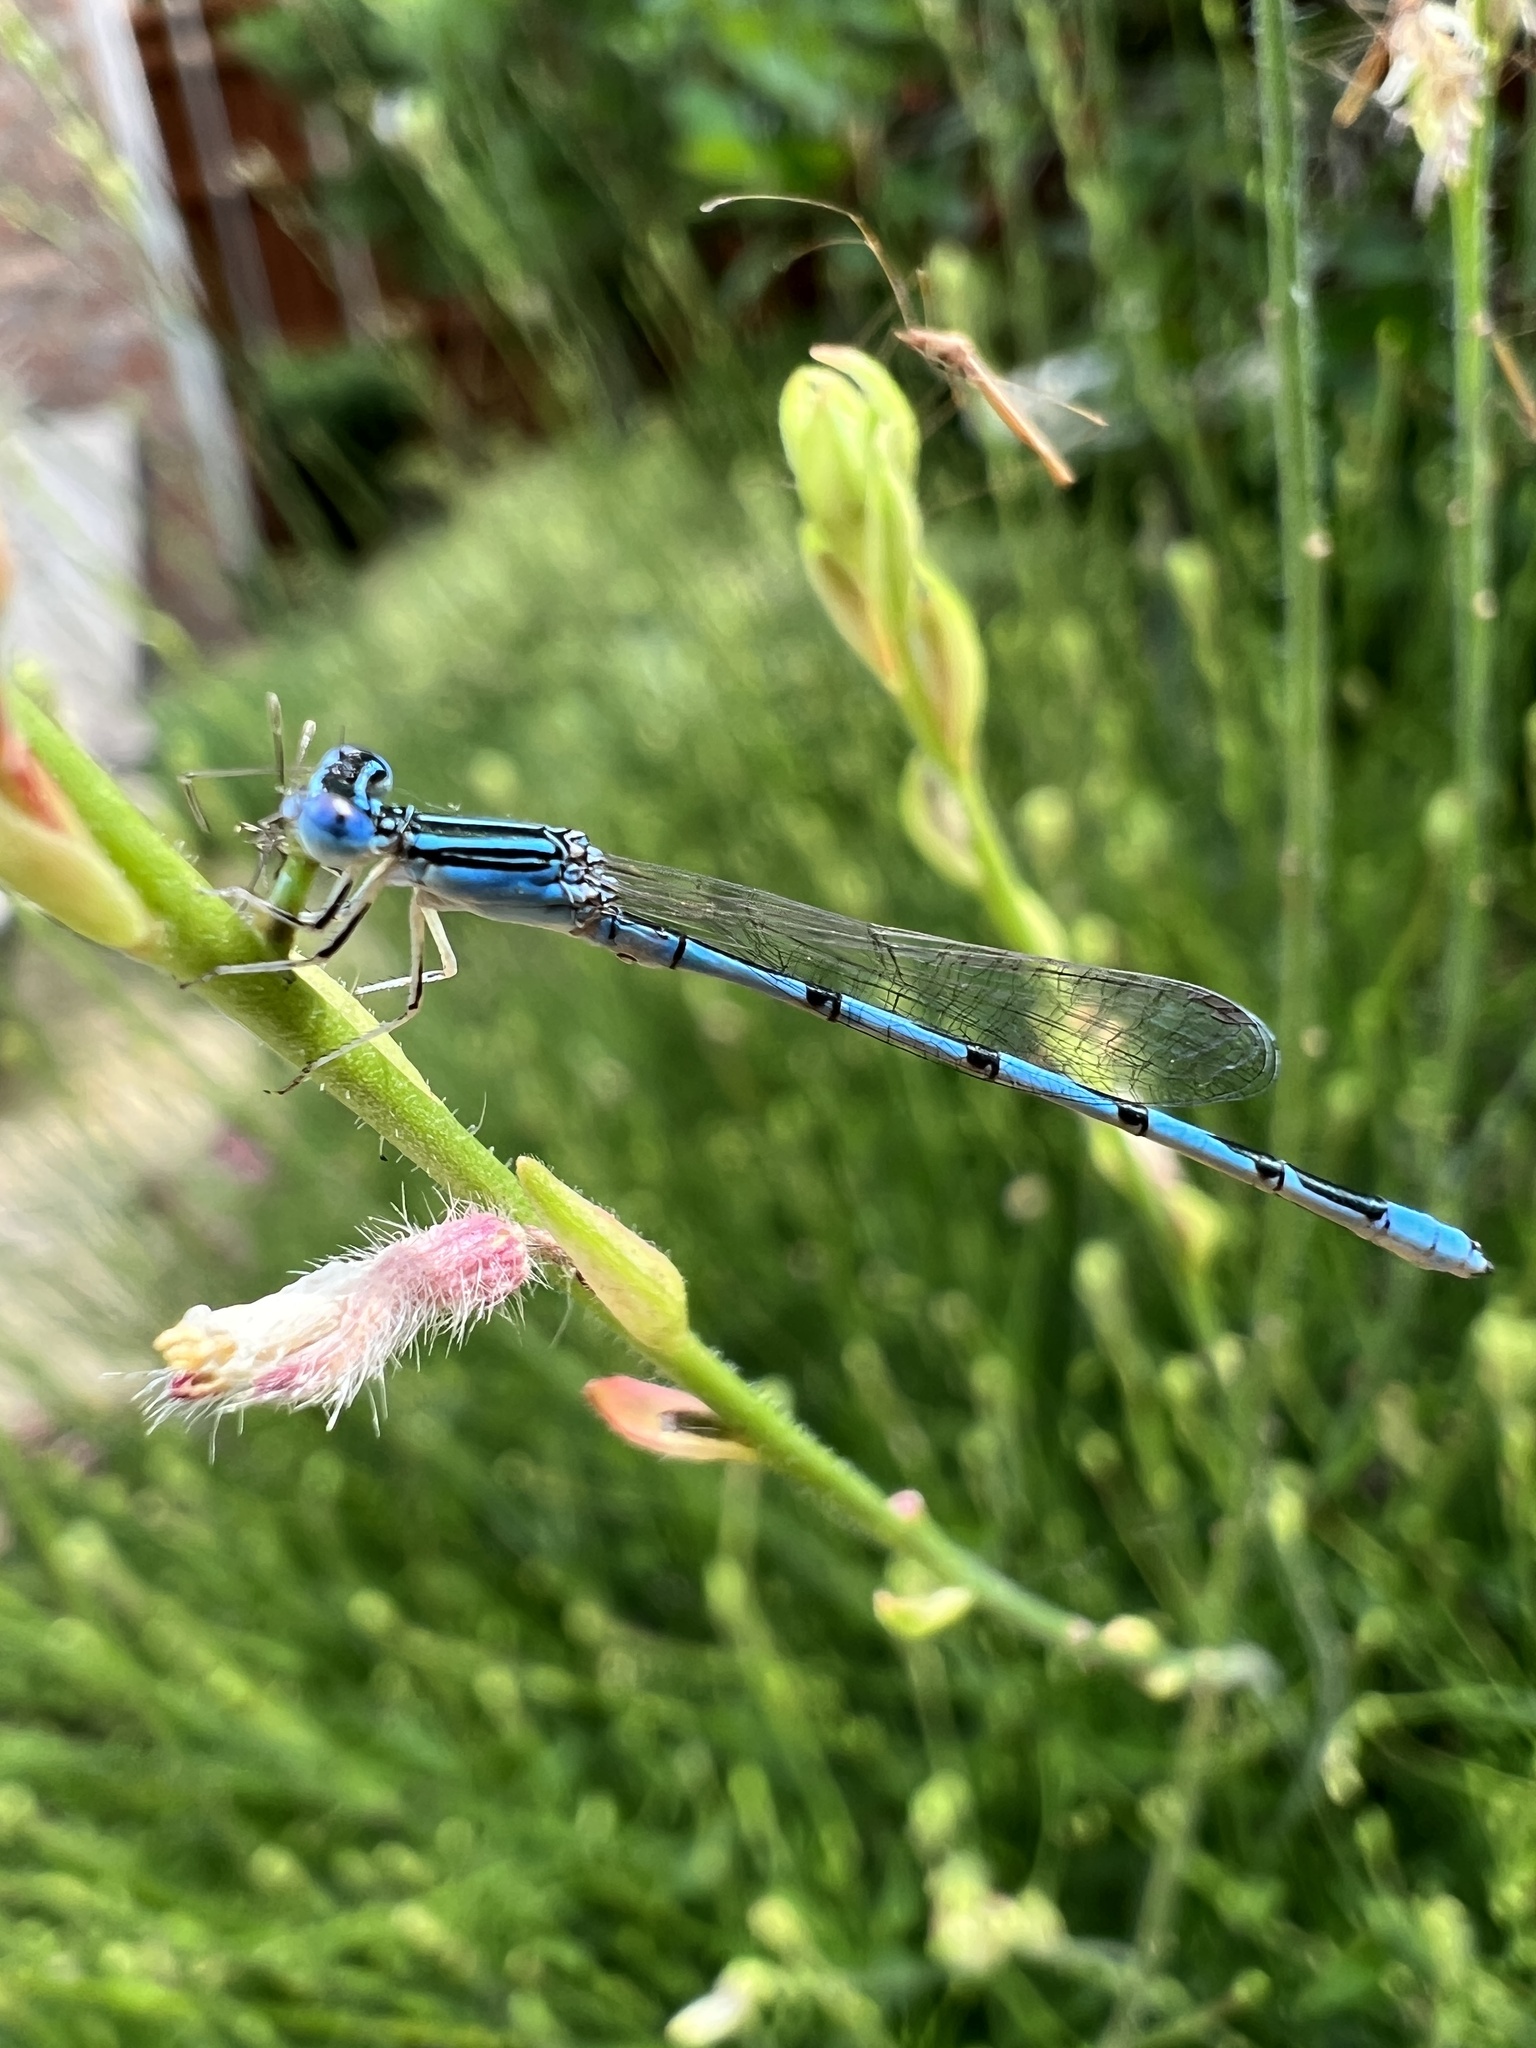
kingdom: Animalia
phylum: Arthropoda
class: Insecta
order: Odonata
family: Coenagrionidae
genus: Enallagma
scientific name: Enallagma basidens
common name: Double-striped bluet
